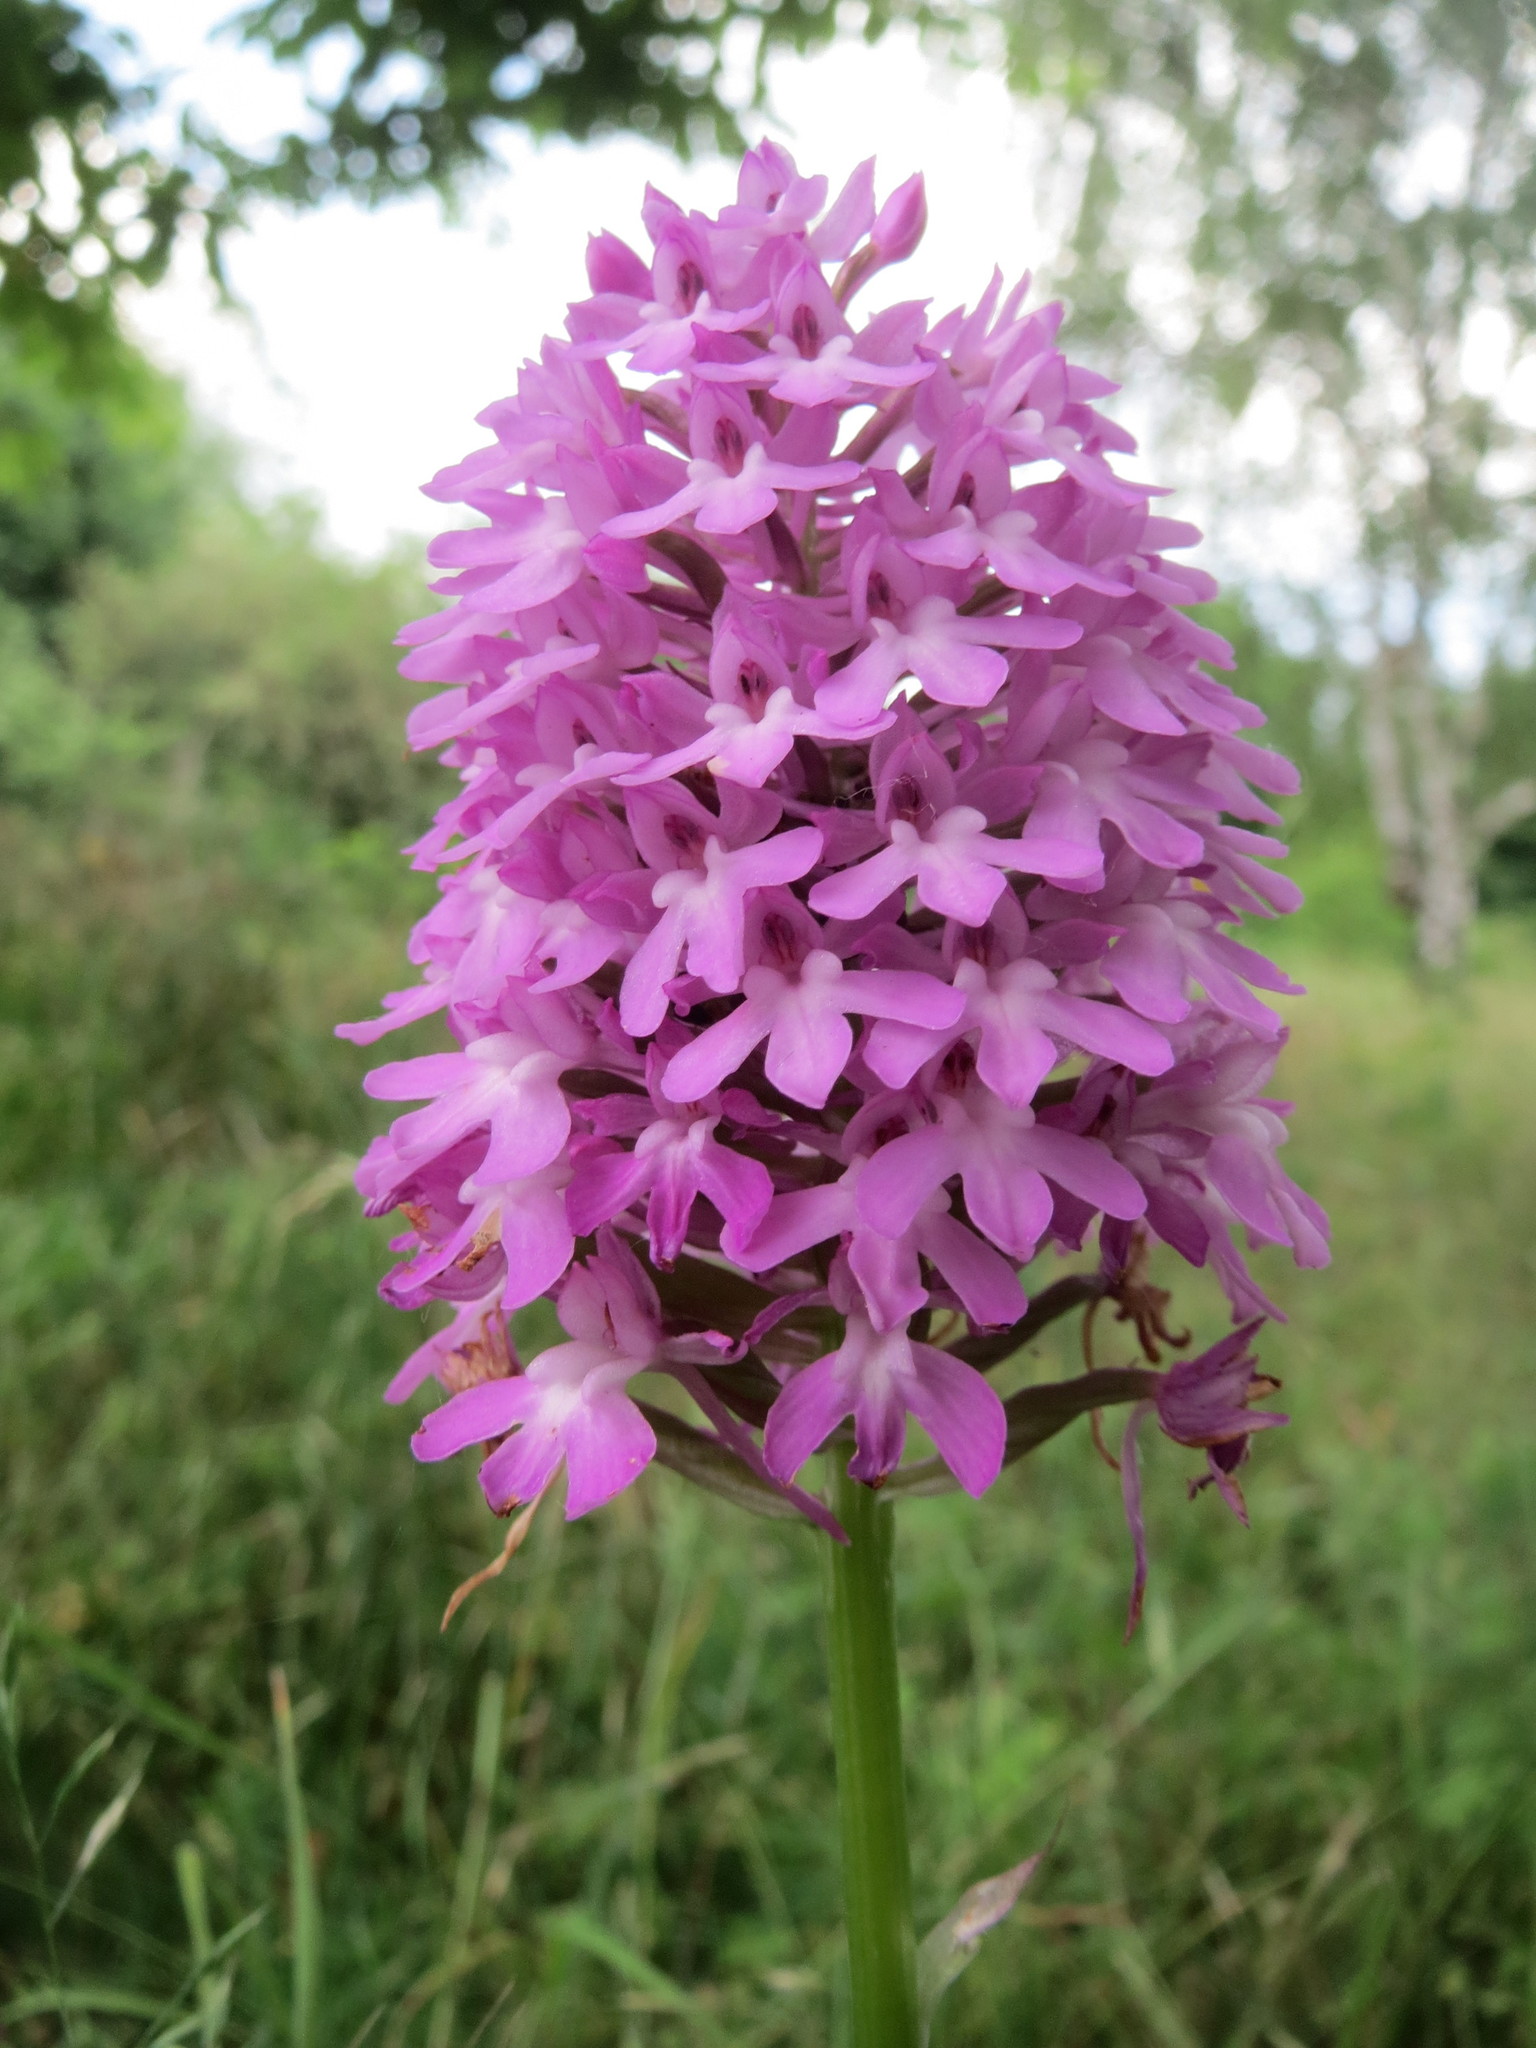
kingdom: Plantae
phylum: Tracheophyta
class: Liliopsida
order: Asparagales
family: Orchidaceae
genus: Anacamptis
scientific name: Anacamptis pyramidalis
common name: Pyramidal orchid
